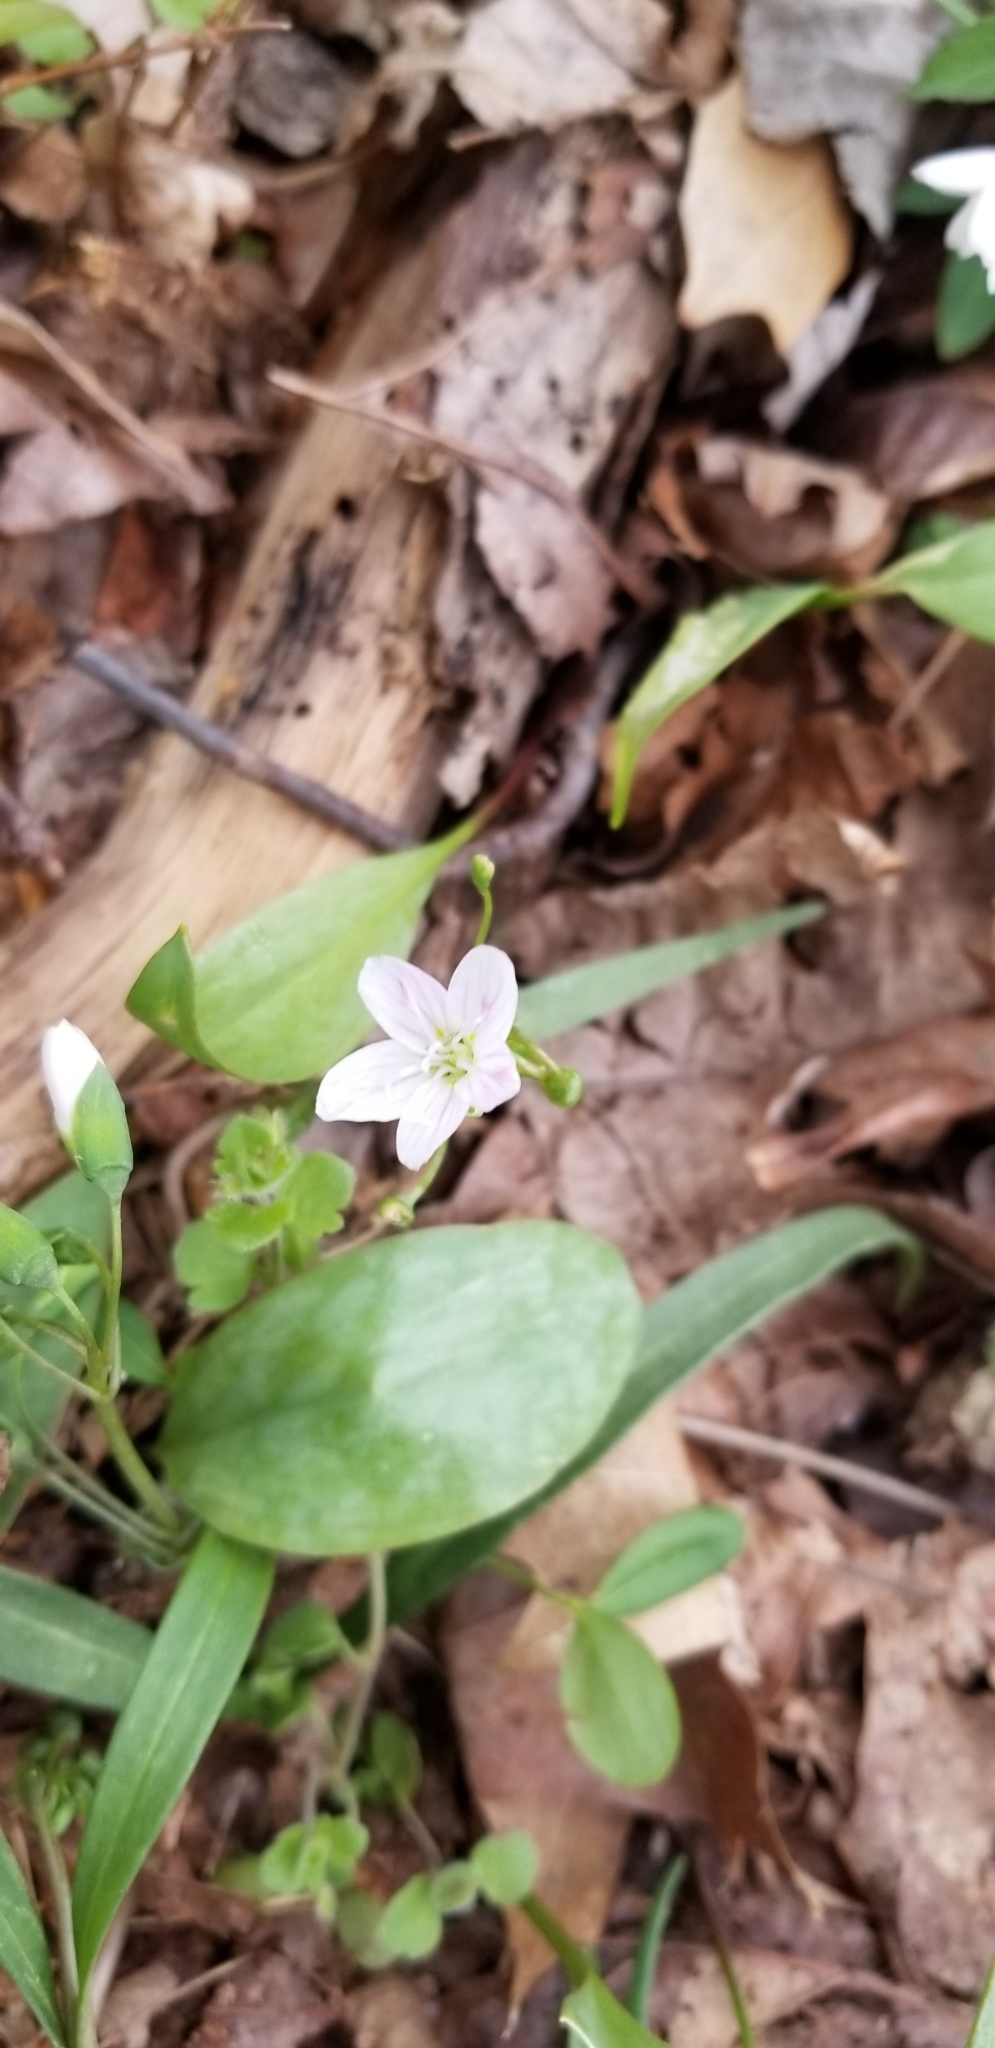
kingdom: Plantae
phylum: Tracheophyta
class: Magnoliopsida
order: Caryophyllales
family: Montiaceae
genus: Claytonia
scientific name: Claytonia virginica
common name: Virginia springbeauty
